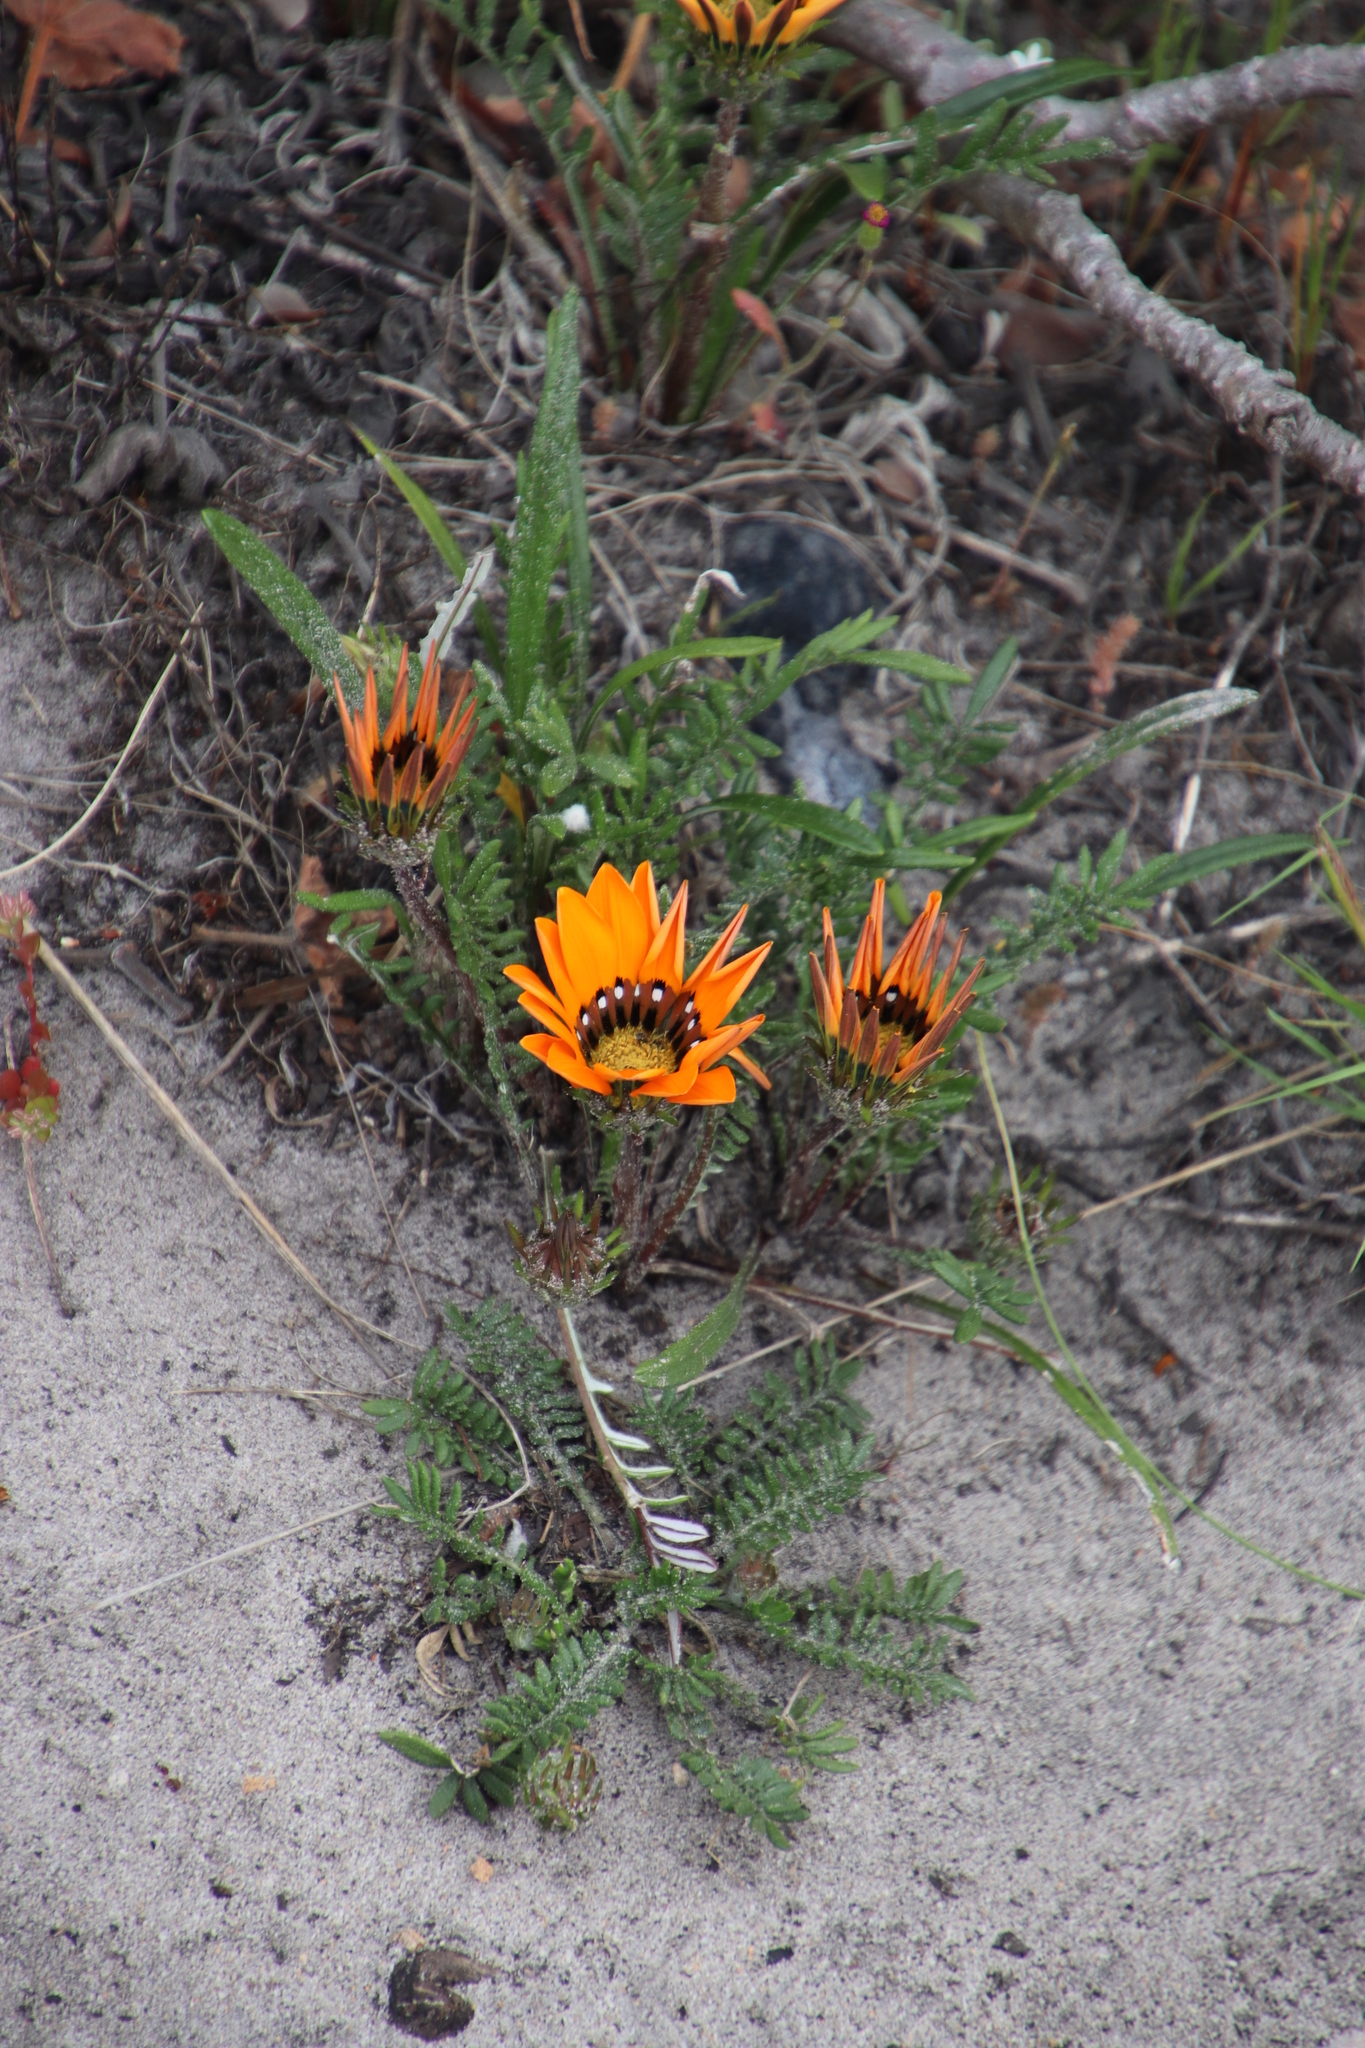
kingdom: Plantae
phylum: Tracheophyta
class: Magnoliopsida
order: Asterales
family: Asteraceae
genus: Gazania
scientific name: Gazania pectinata
